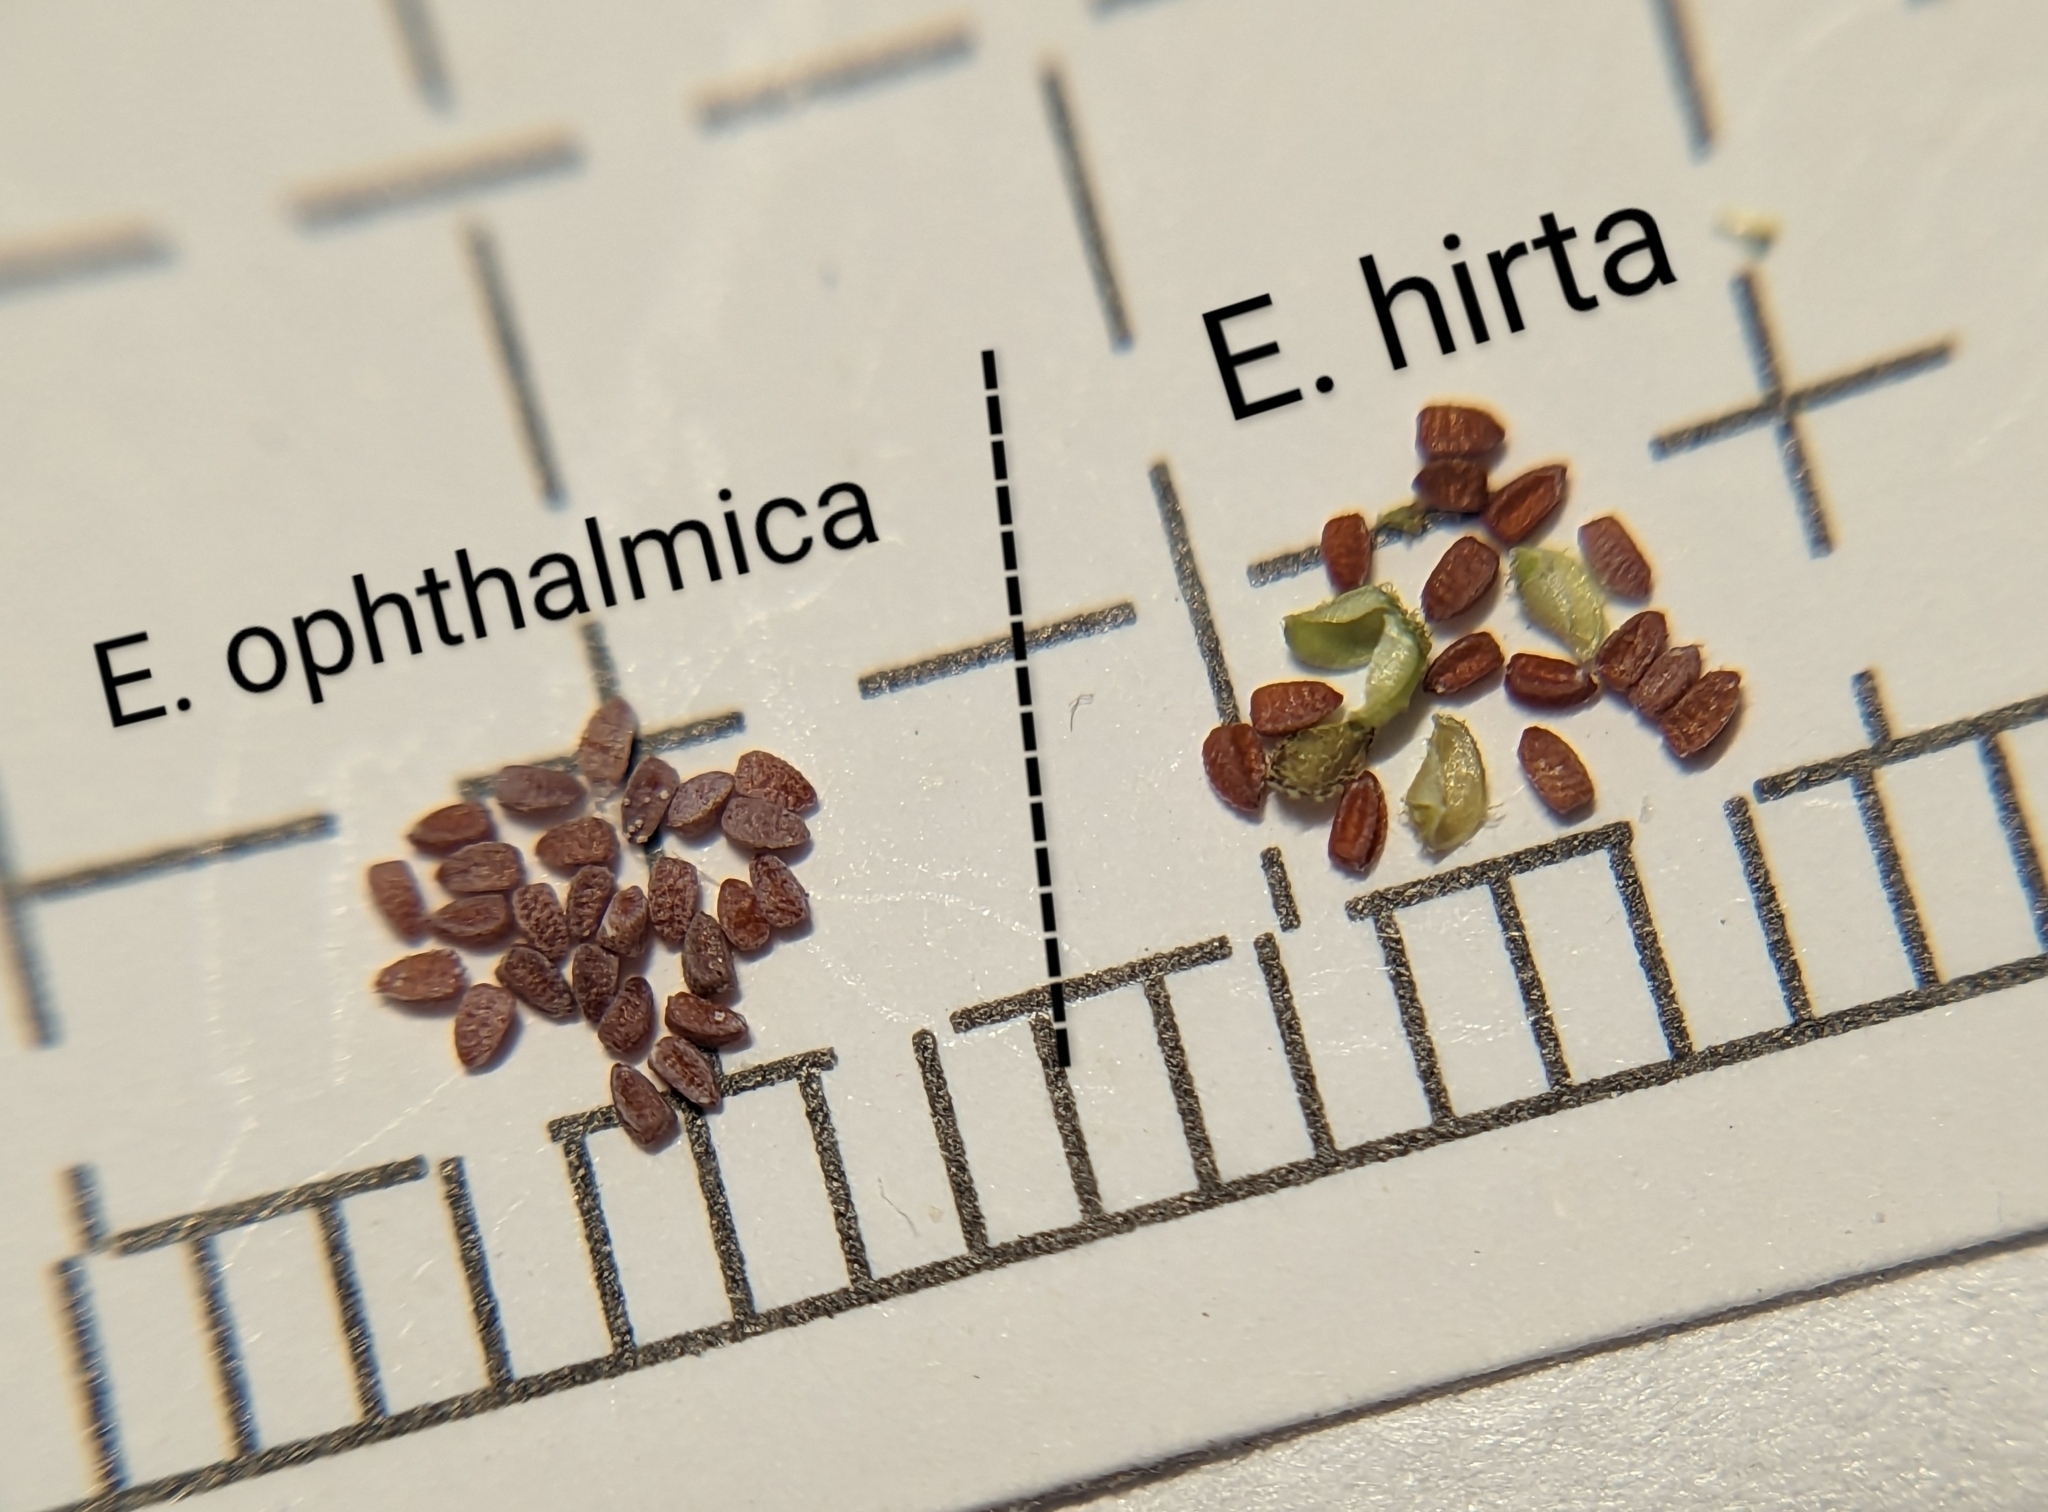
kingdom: Plantae
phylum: Tracheophyta
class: Magnoliopsida
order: Malpighiales
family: Euphorbiaceae
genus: Euphorbia
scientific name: Euphorbia ophthalmica
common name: Florida hammock sandmat
